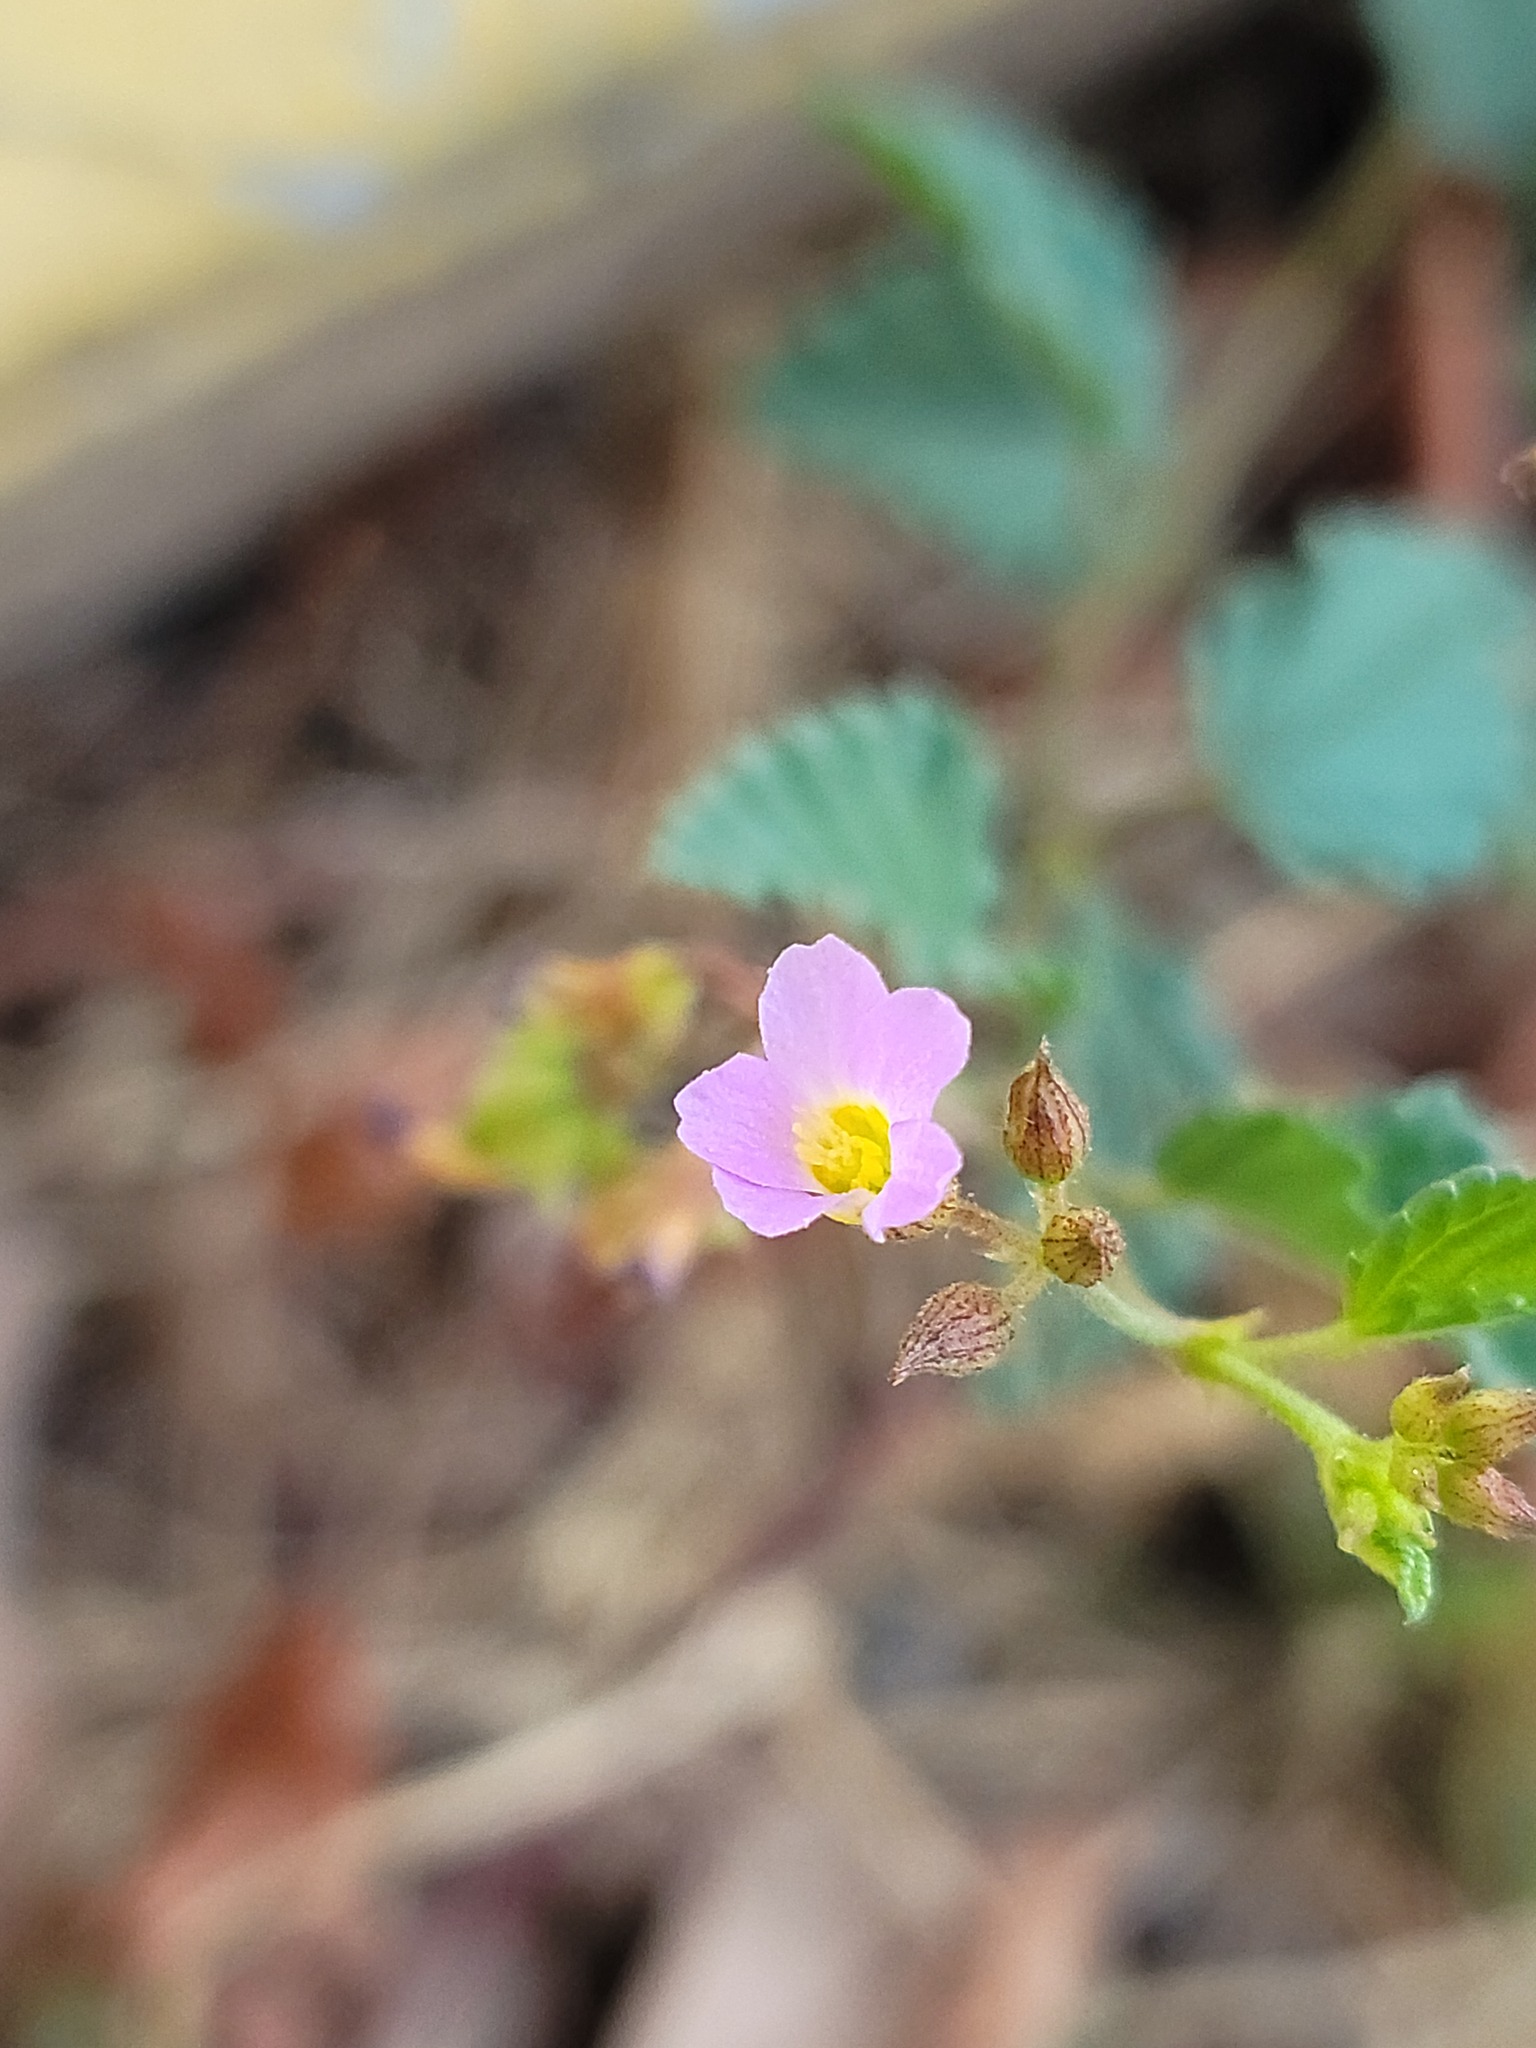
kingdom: Plantae
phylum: Tracheophyta
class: Magnoliopsida
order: Malvales
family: Malvaceae
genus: Melochia
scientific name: Melochia pyramidata
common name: Pyramidflower
